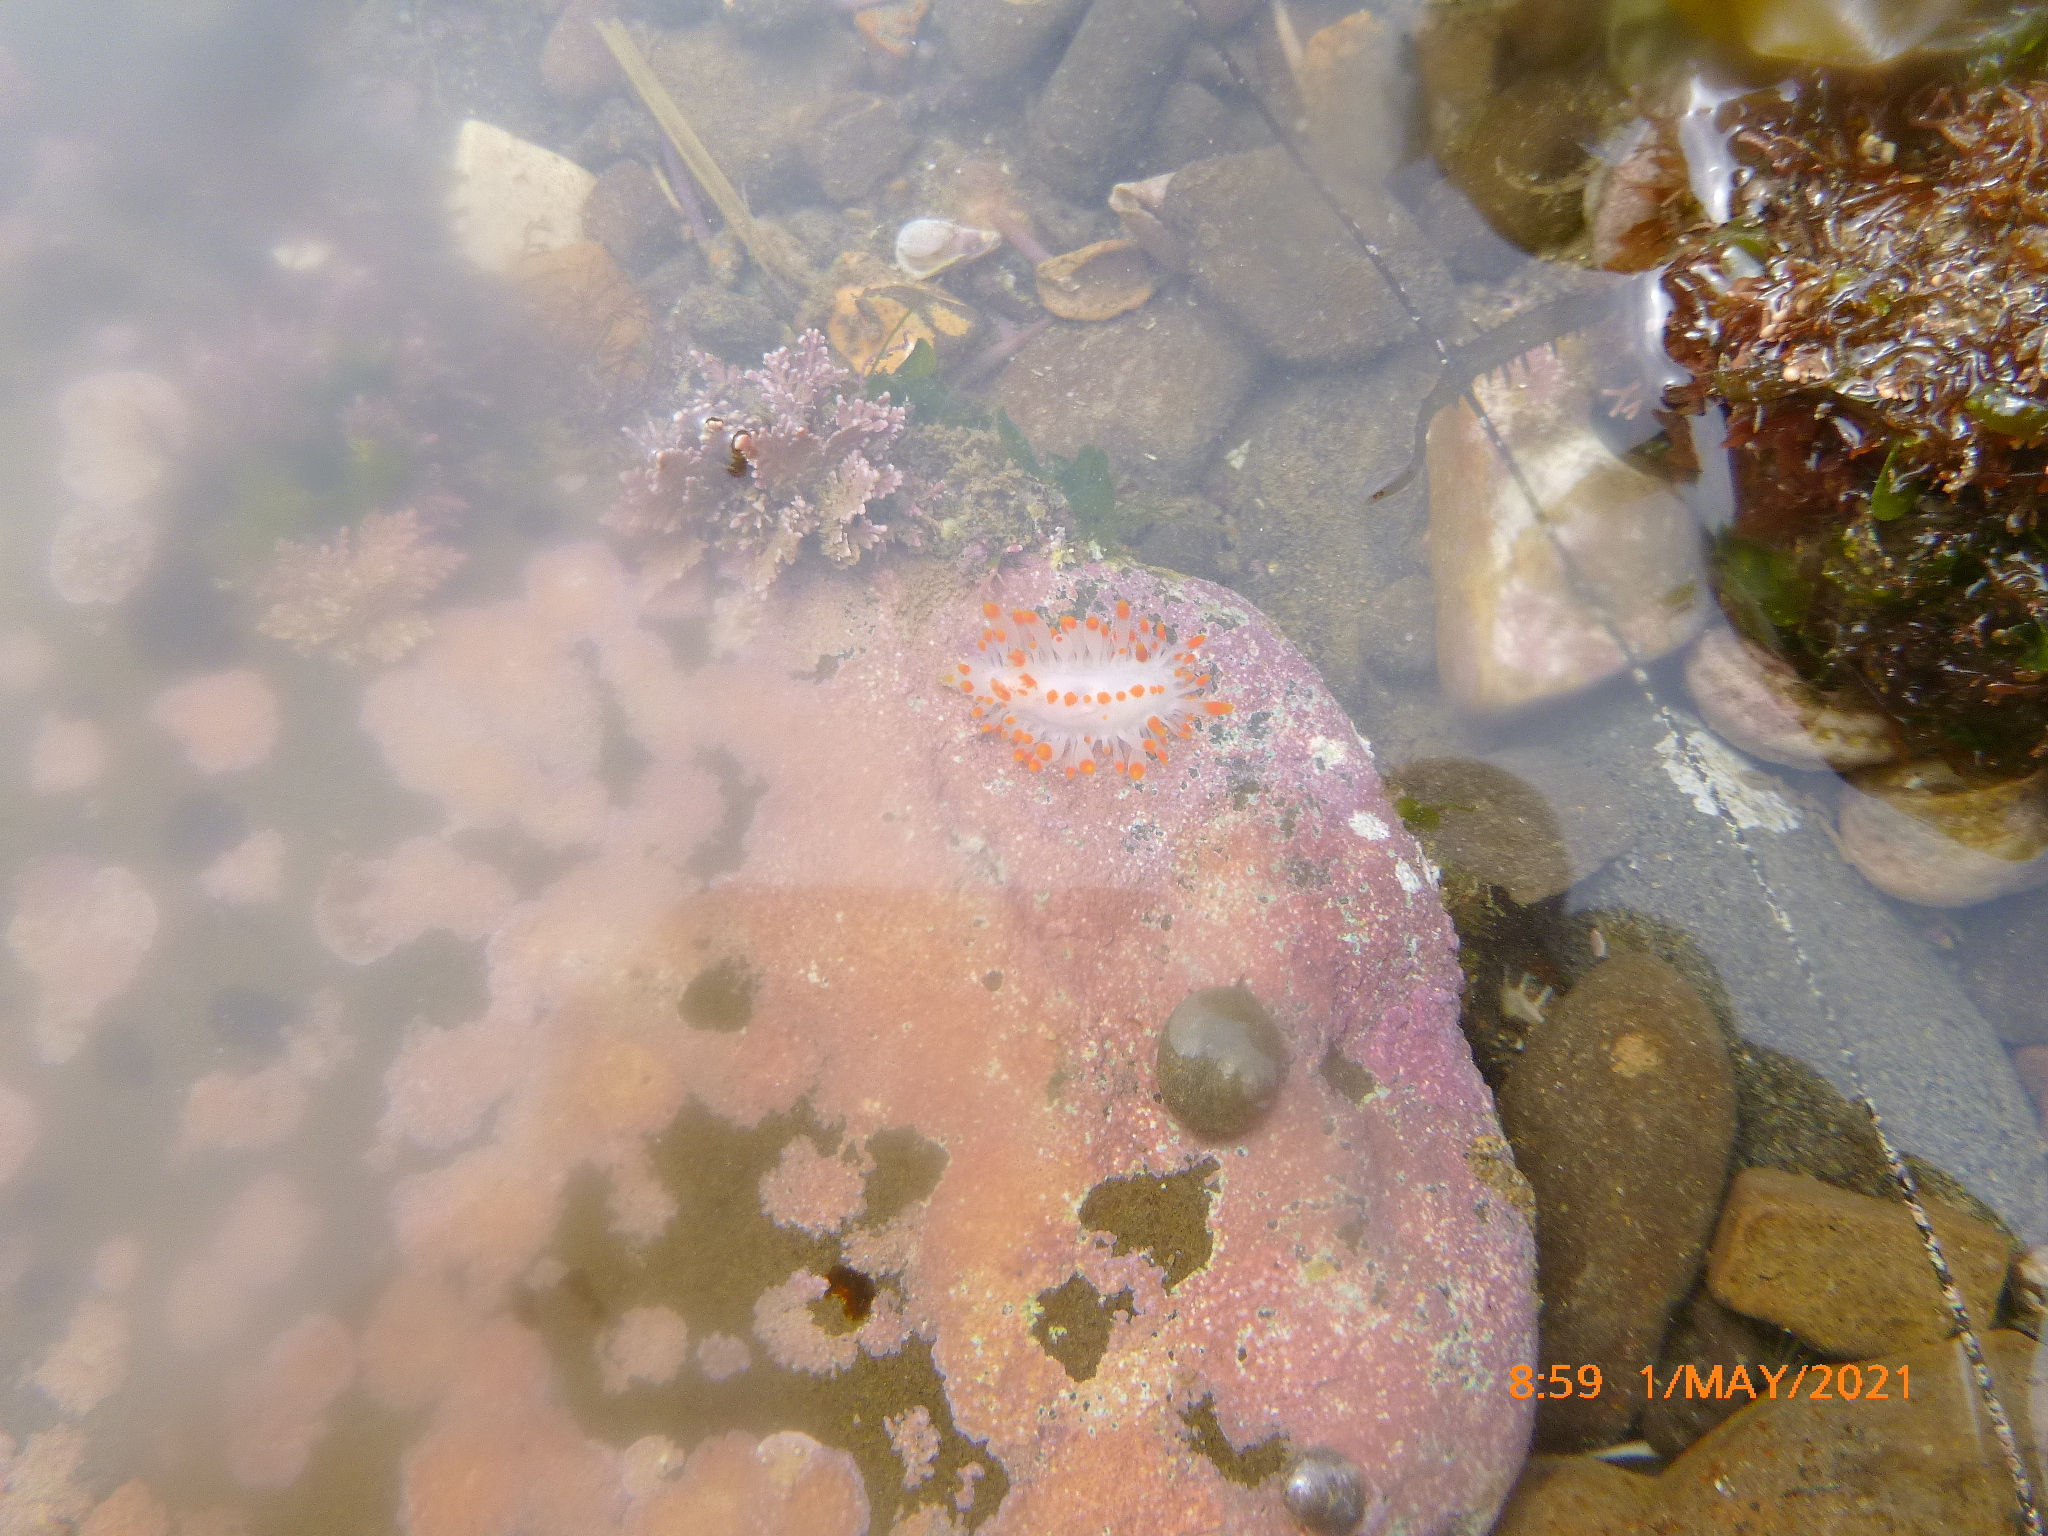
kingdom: Animalia
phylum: Mollusca
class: Gastropoda
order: Nudibranchia
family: Polyceridae
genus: Limacia
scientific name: Limacia mcdonaldi
